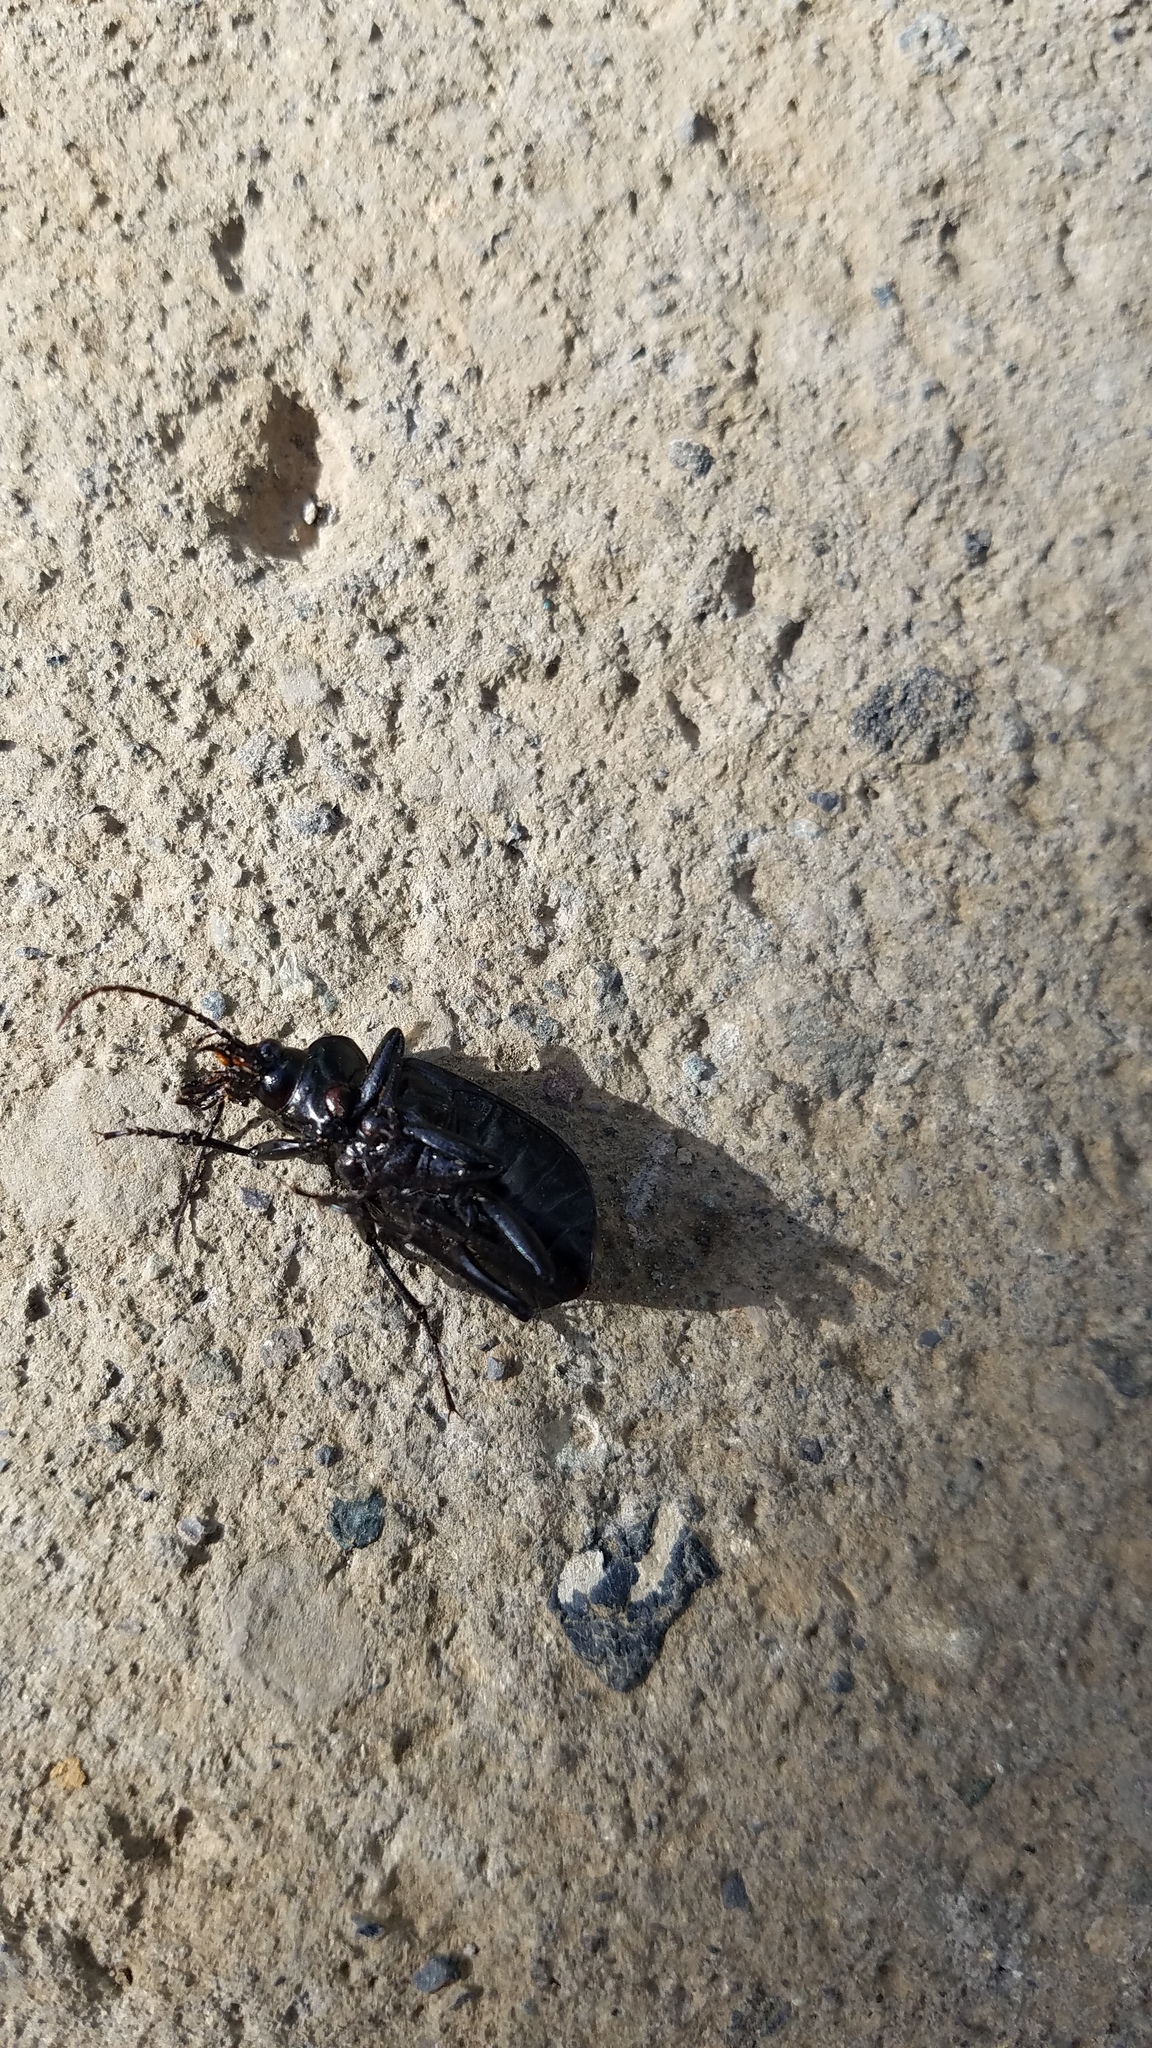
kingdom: Animalia
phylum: Arthropoda
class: Insecta
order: Coleoptera
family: Carabidae
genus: Calosoma
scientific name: Calosoma sayi
